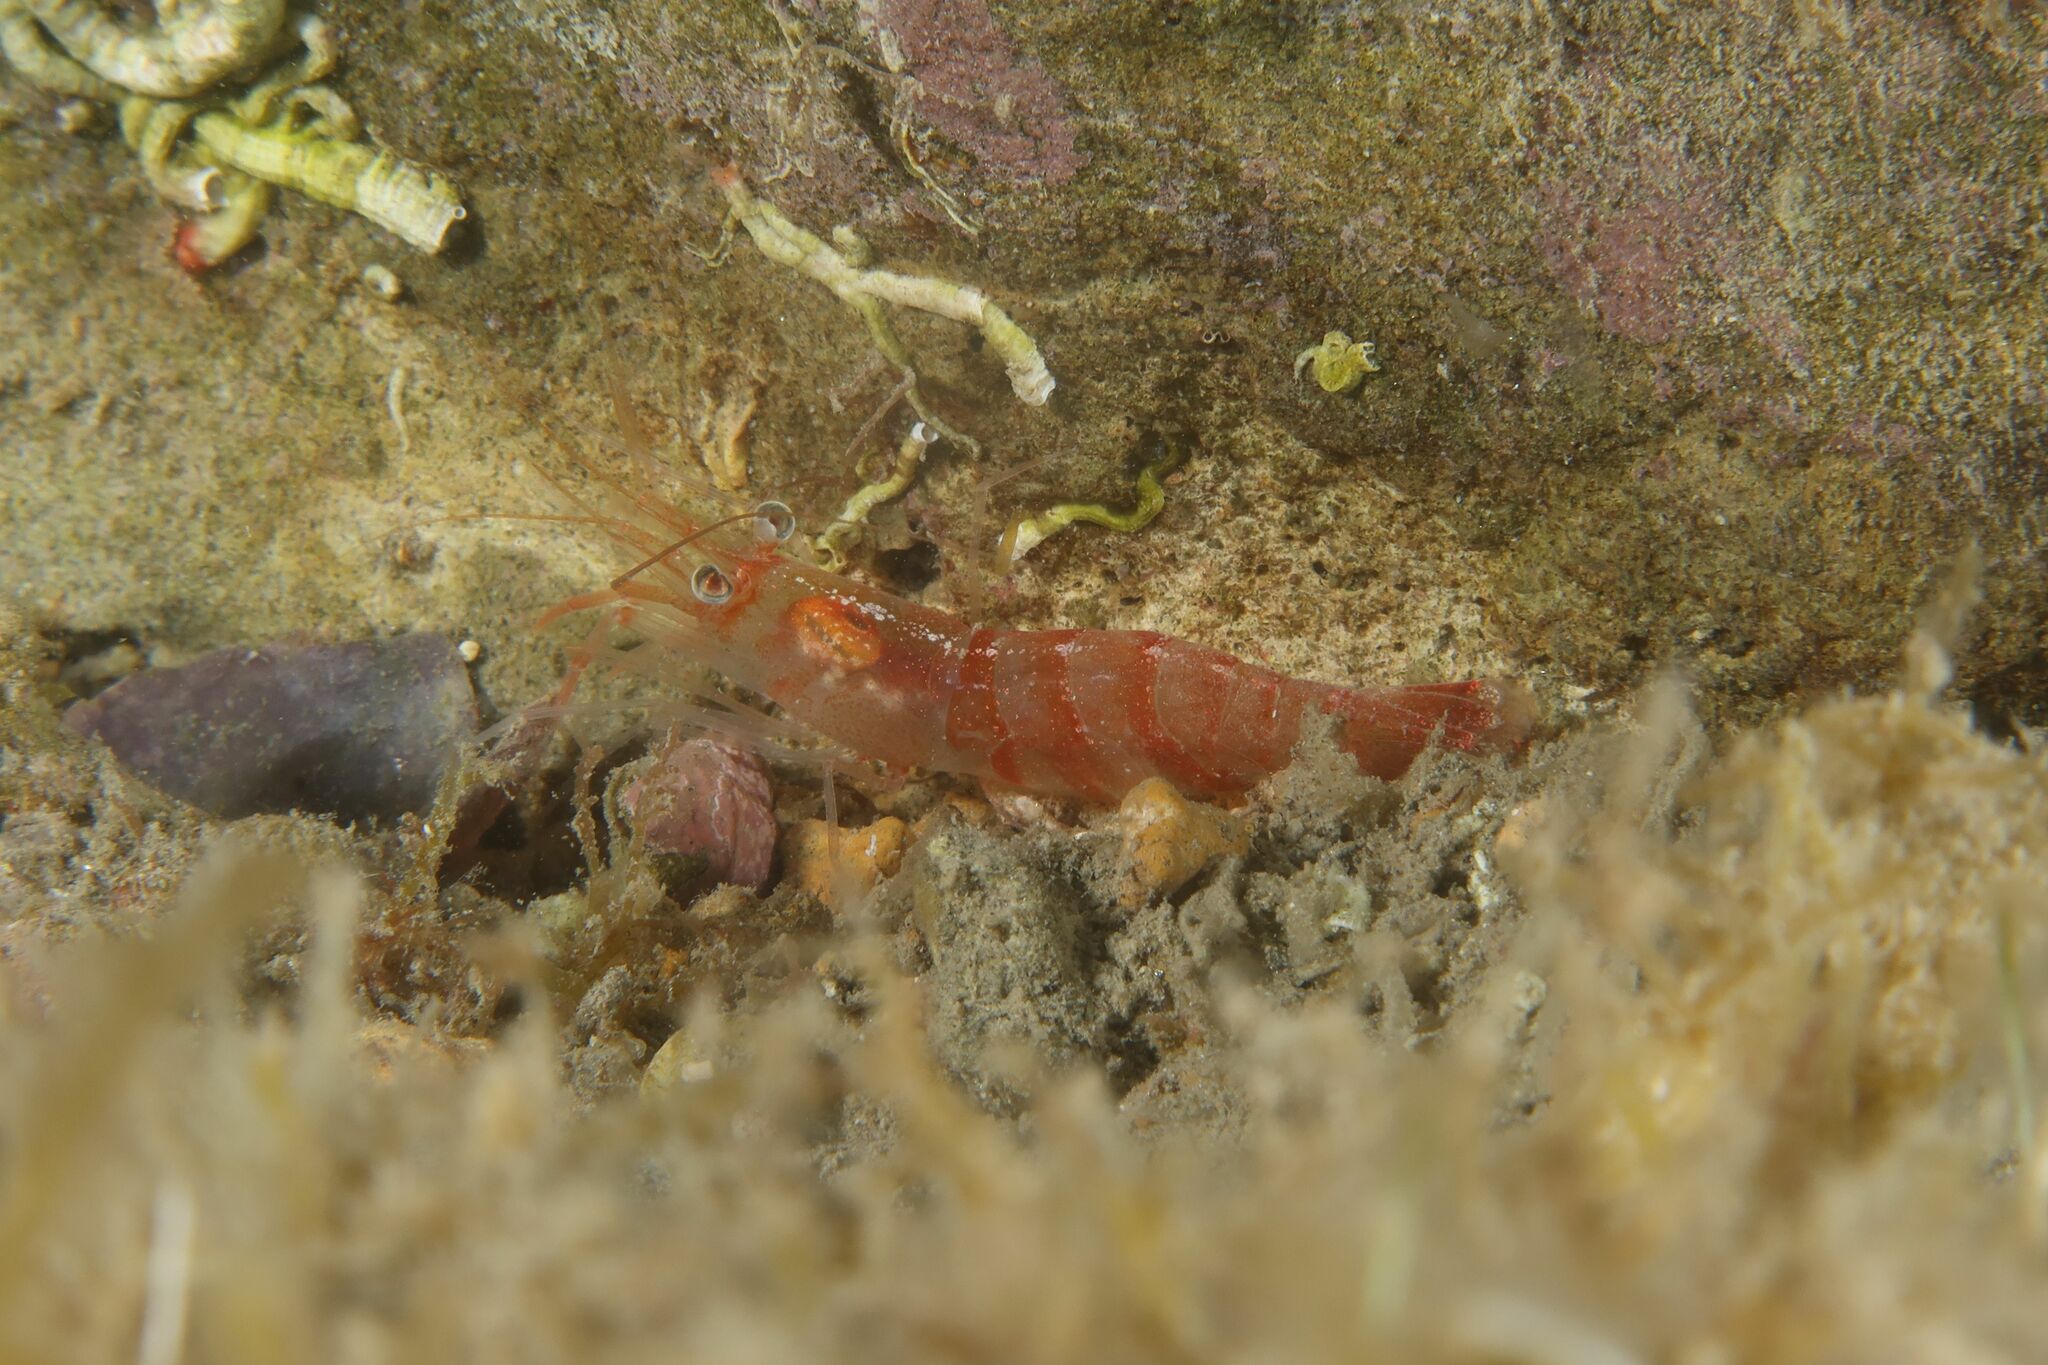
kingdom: Animalia
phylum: Arthropoda
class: Malacostraca
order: Decapoda
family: Processidae
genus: Processa
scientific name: Processa edulis
